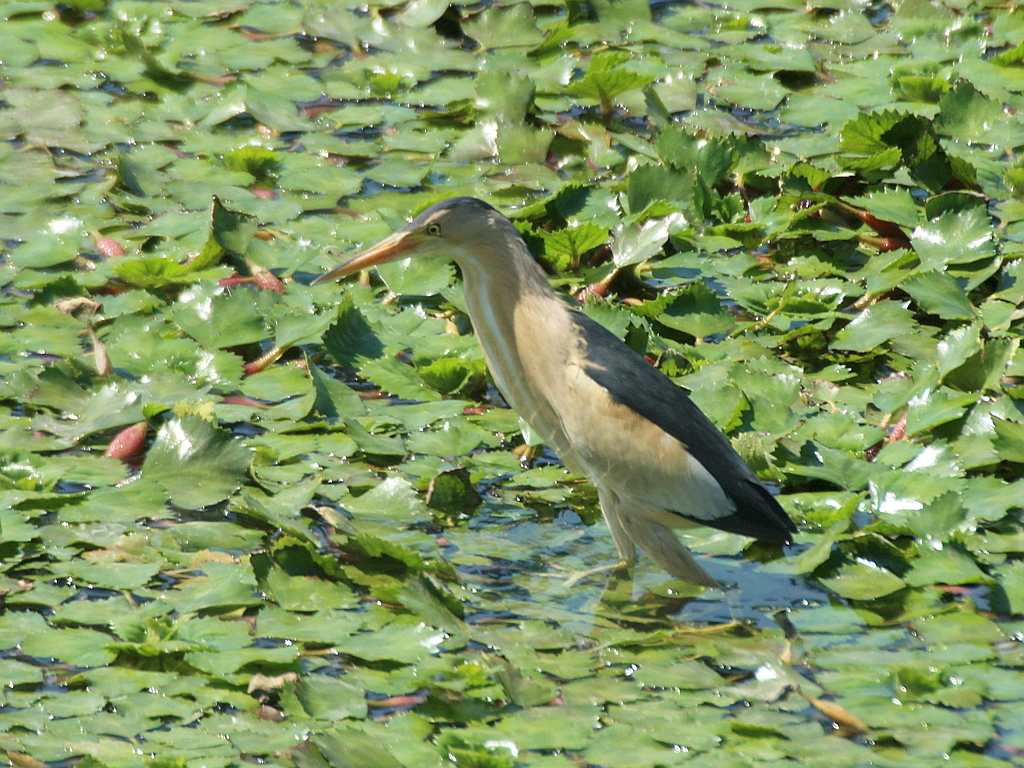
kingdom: Animalia
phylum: Chordata
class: Aves
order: Pelecaniformes
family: Ardeidae
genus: Ixobrychus
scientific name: Ixobrychus minutus
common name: Little bittern
